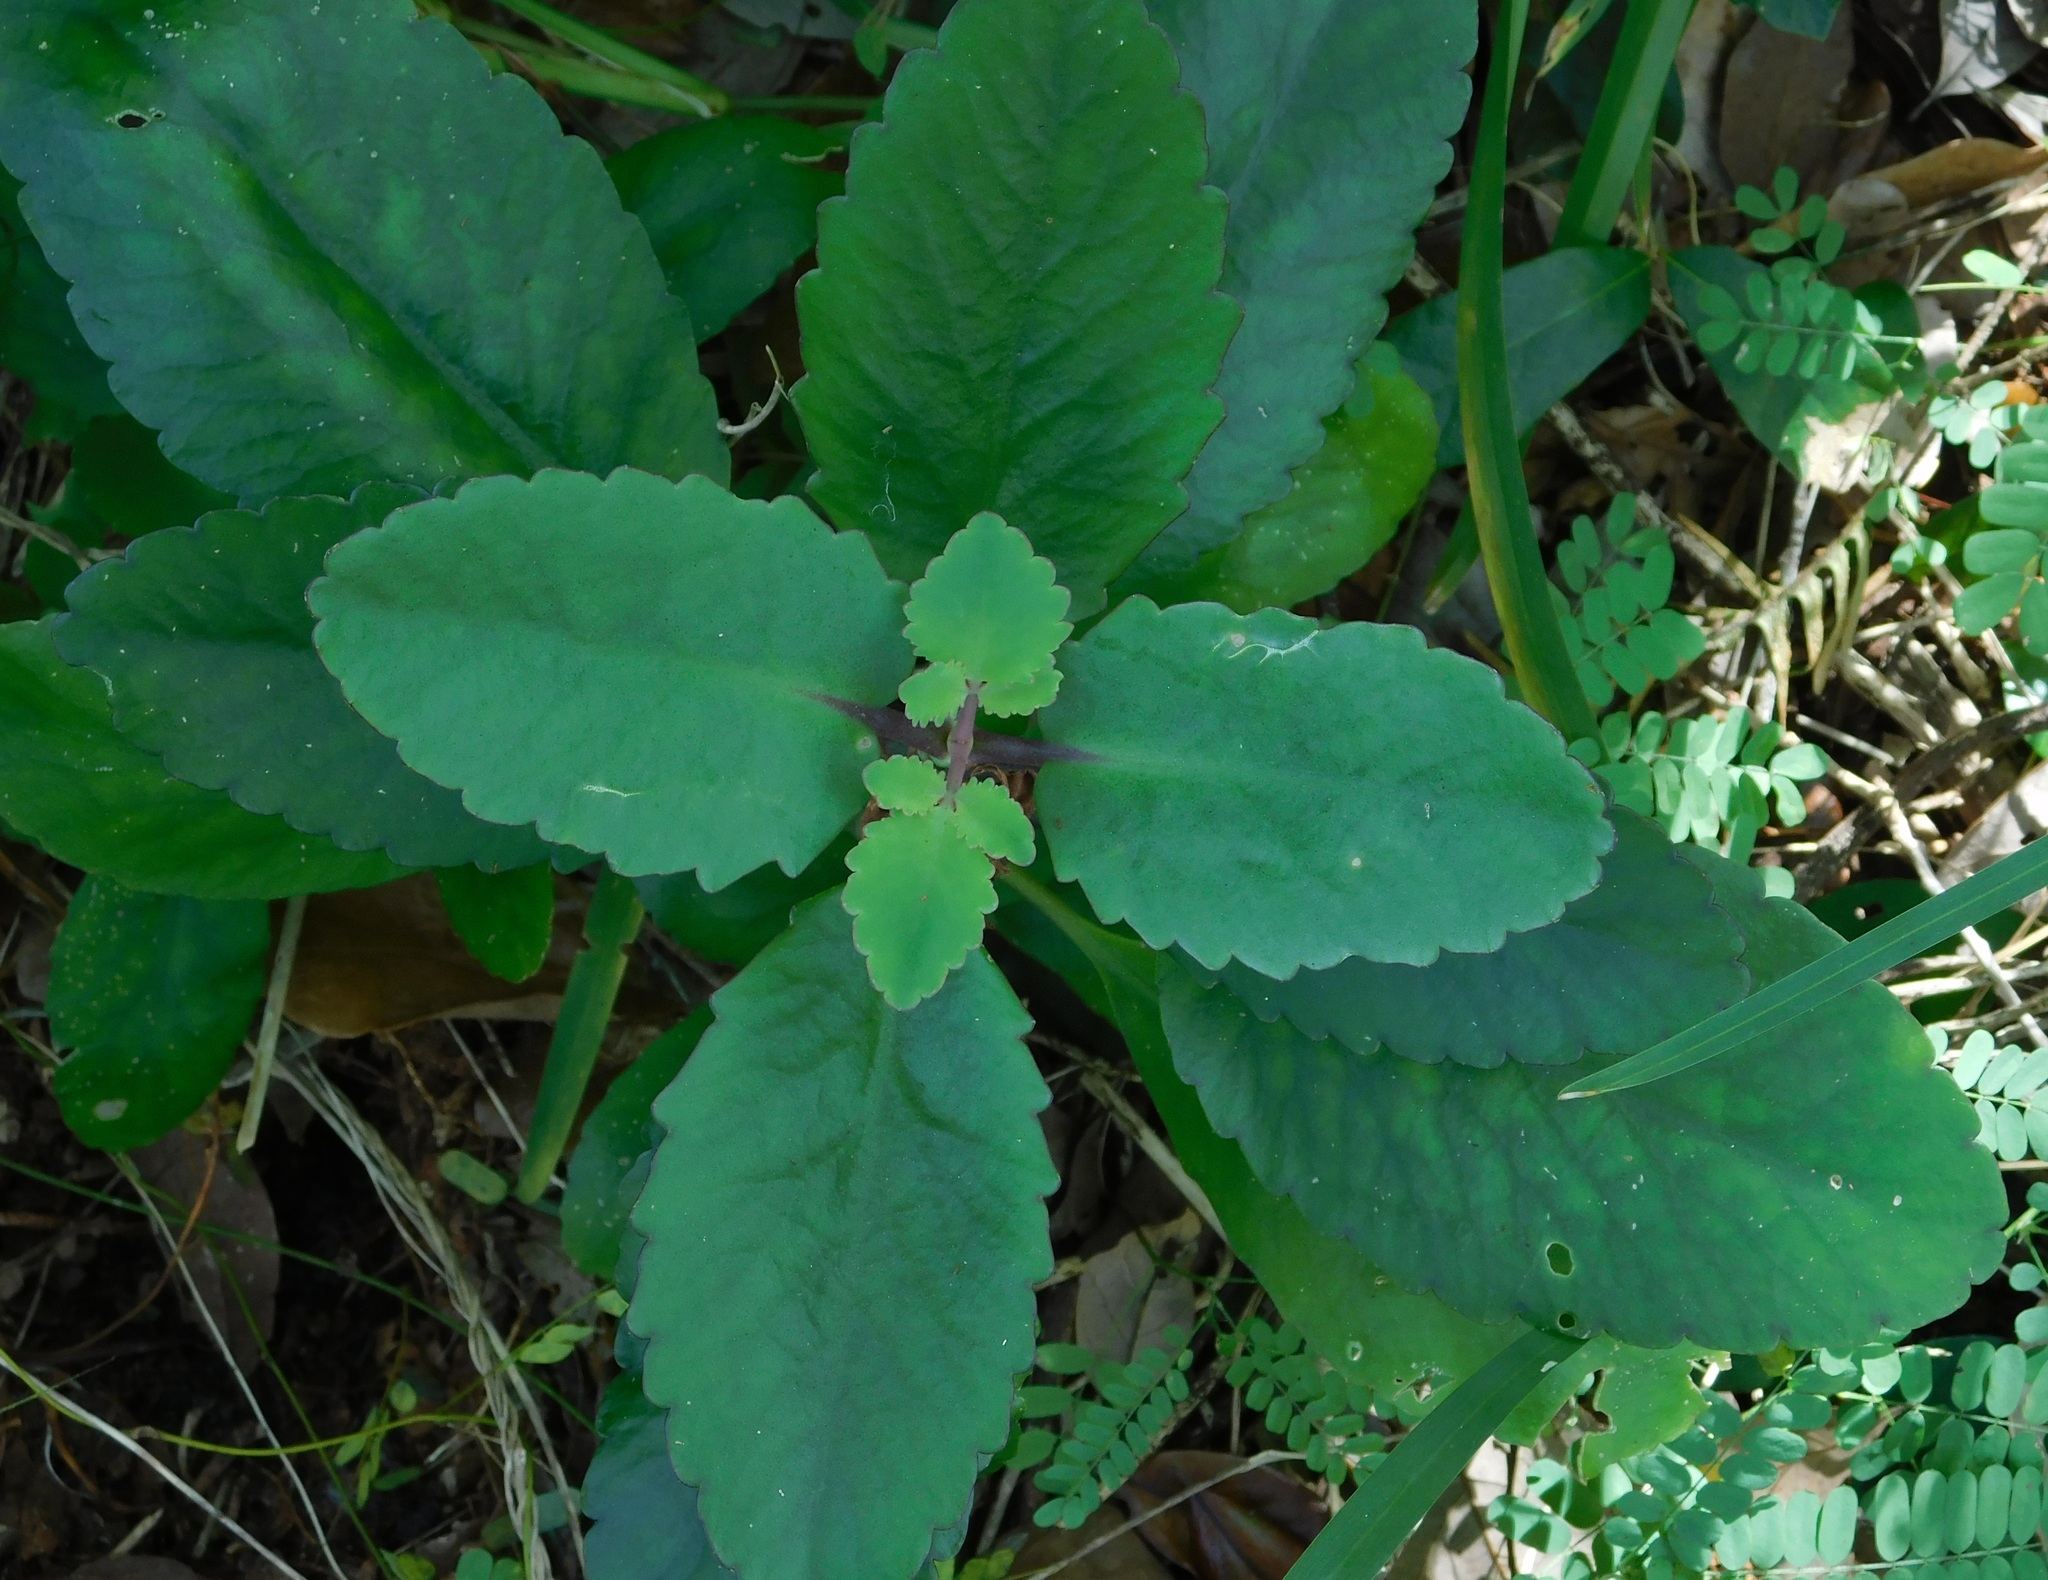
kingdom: Plantae
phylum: Tracheophyta
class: Magnoliopsida
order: Saxifragales
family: Crassulaceae
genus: Kalanchoe
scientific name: Kalanchoe pinnata
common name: Cathedral bells
